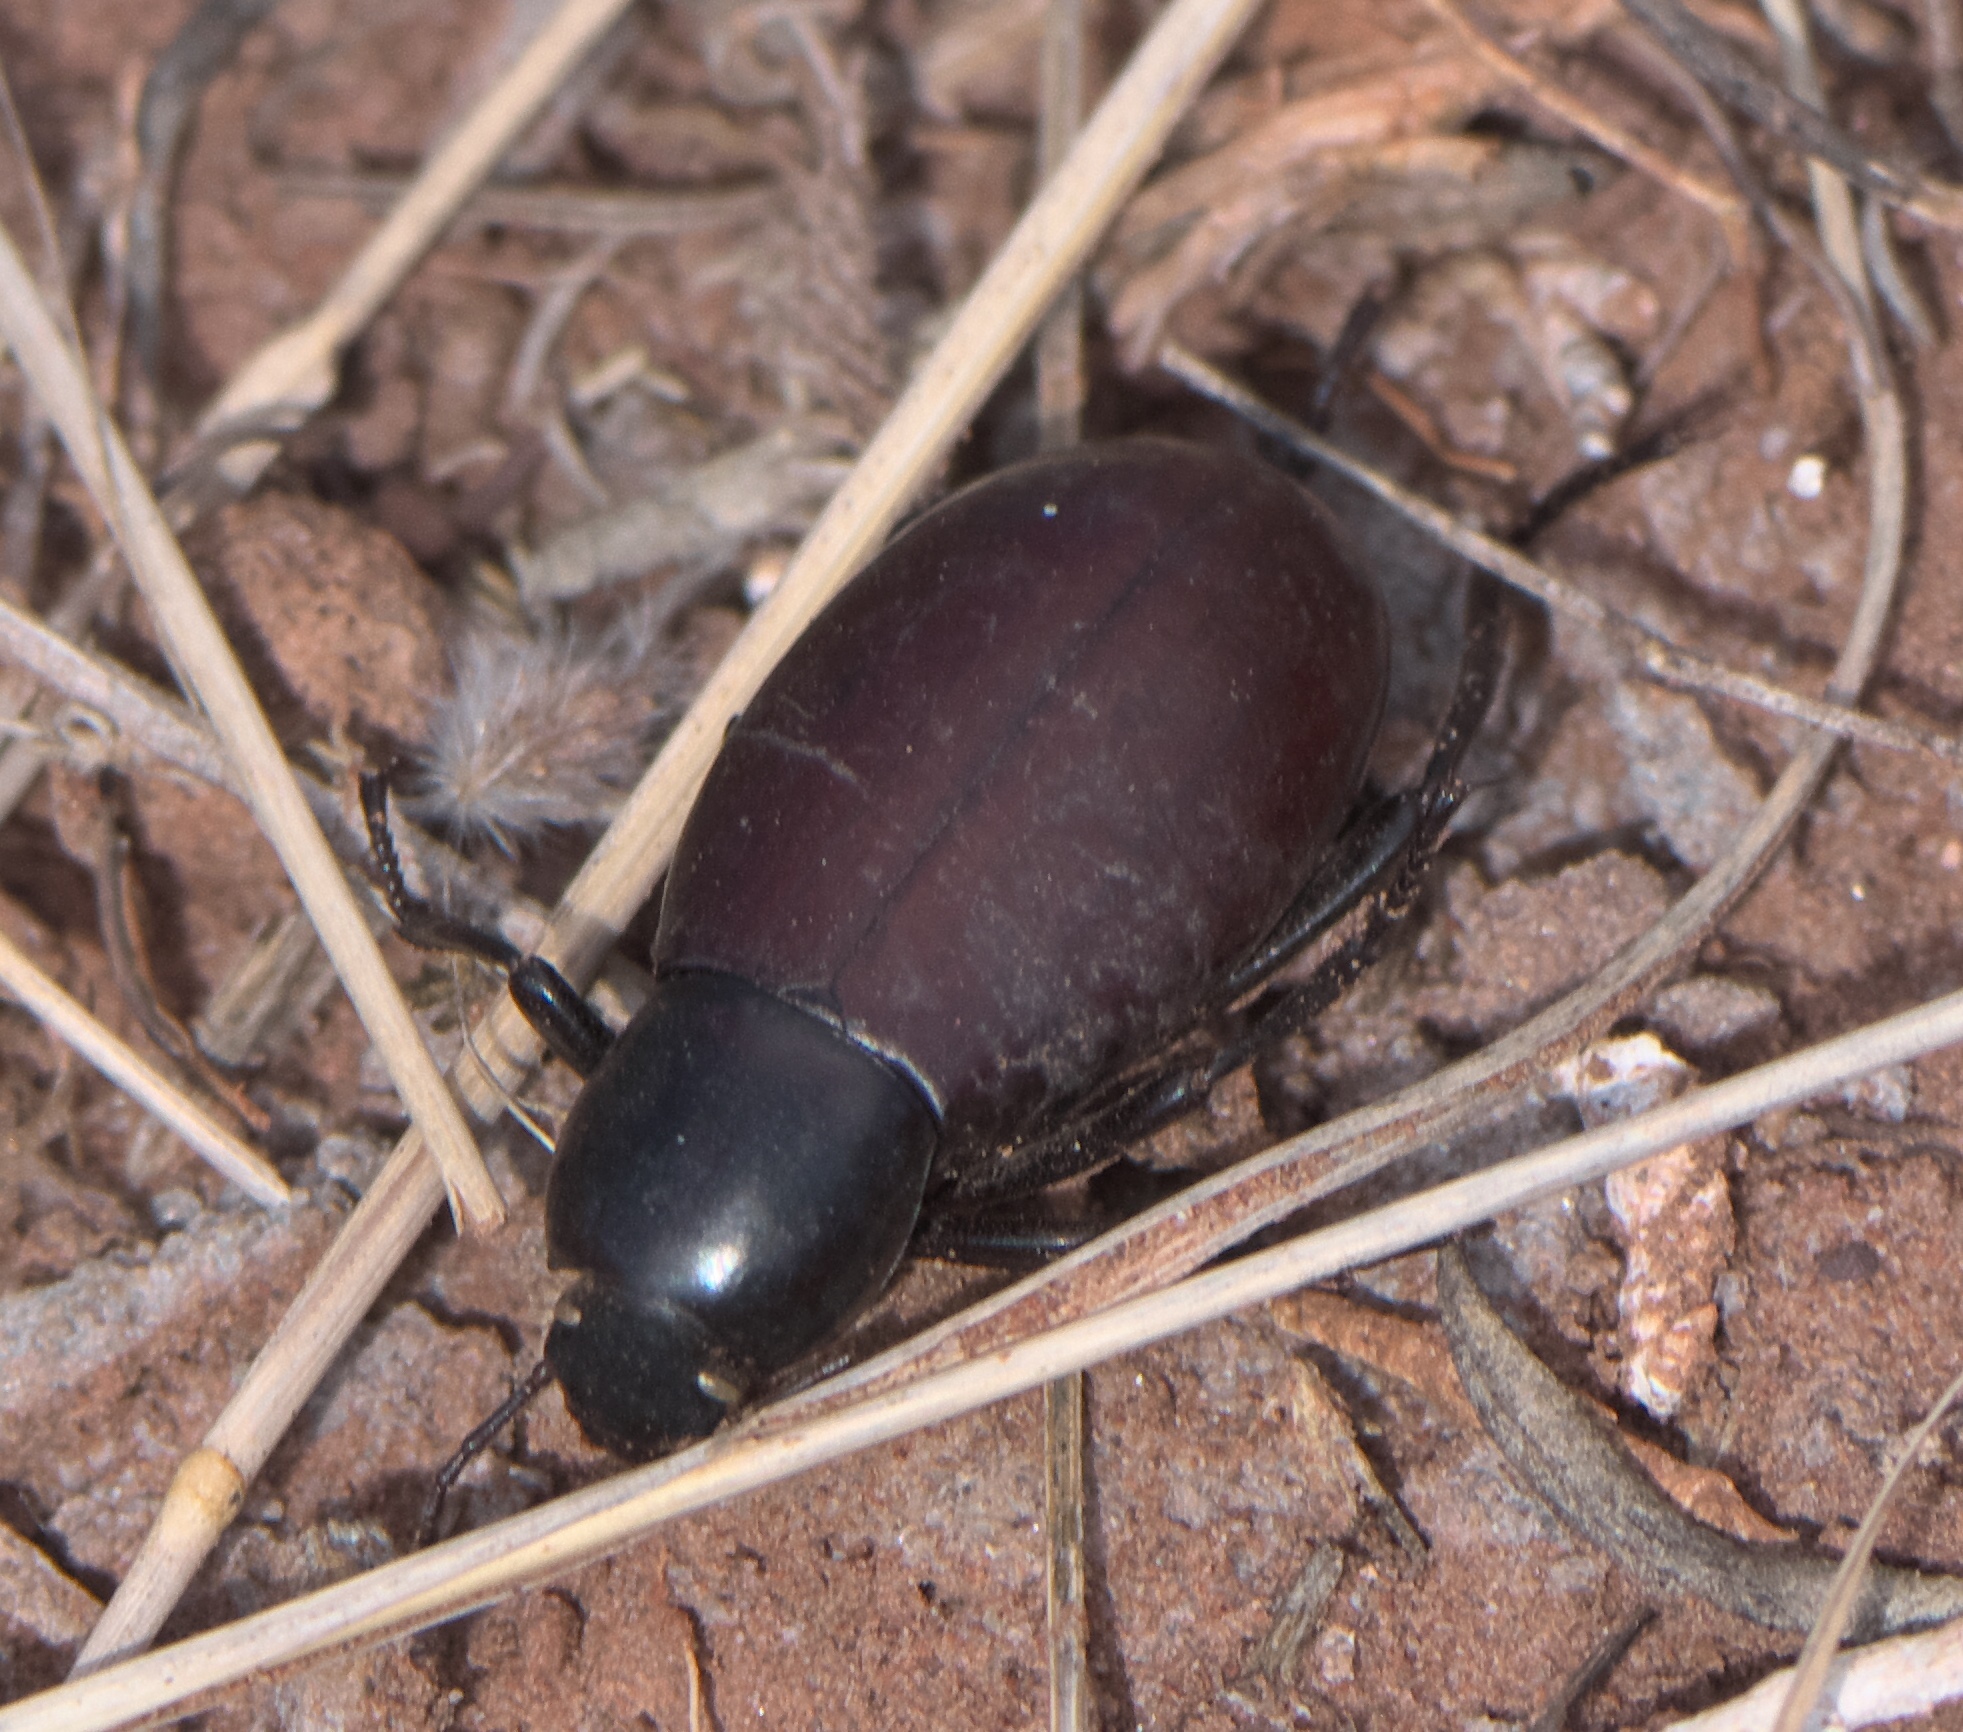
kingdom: Animalia
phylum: Arthropoda
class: Insecta
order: Coleoptera
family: Tenebrionidae
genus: Eleodes
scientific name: Eleodes longicollis
